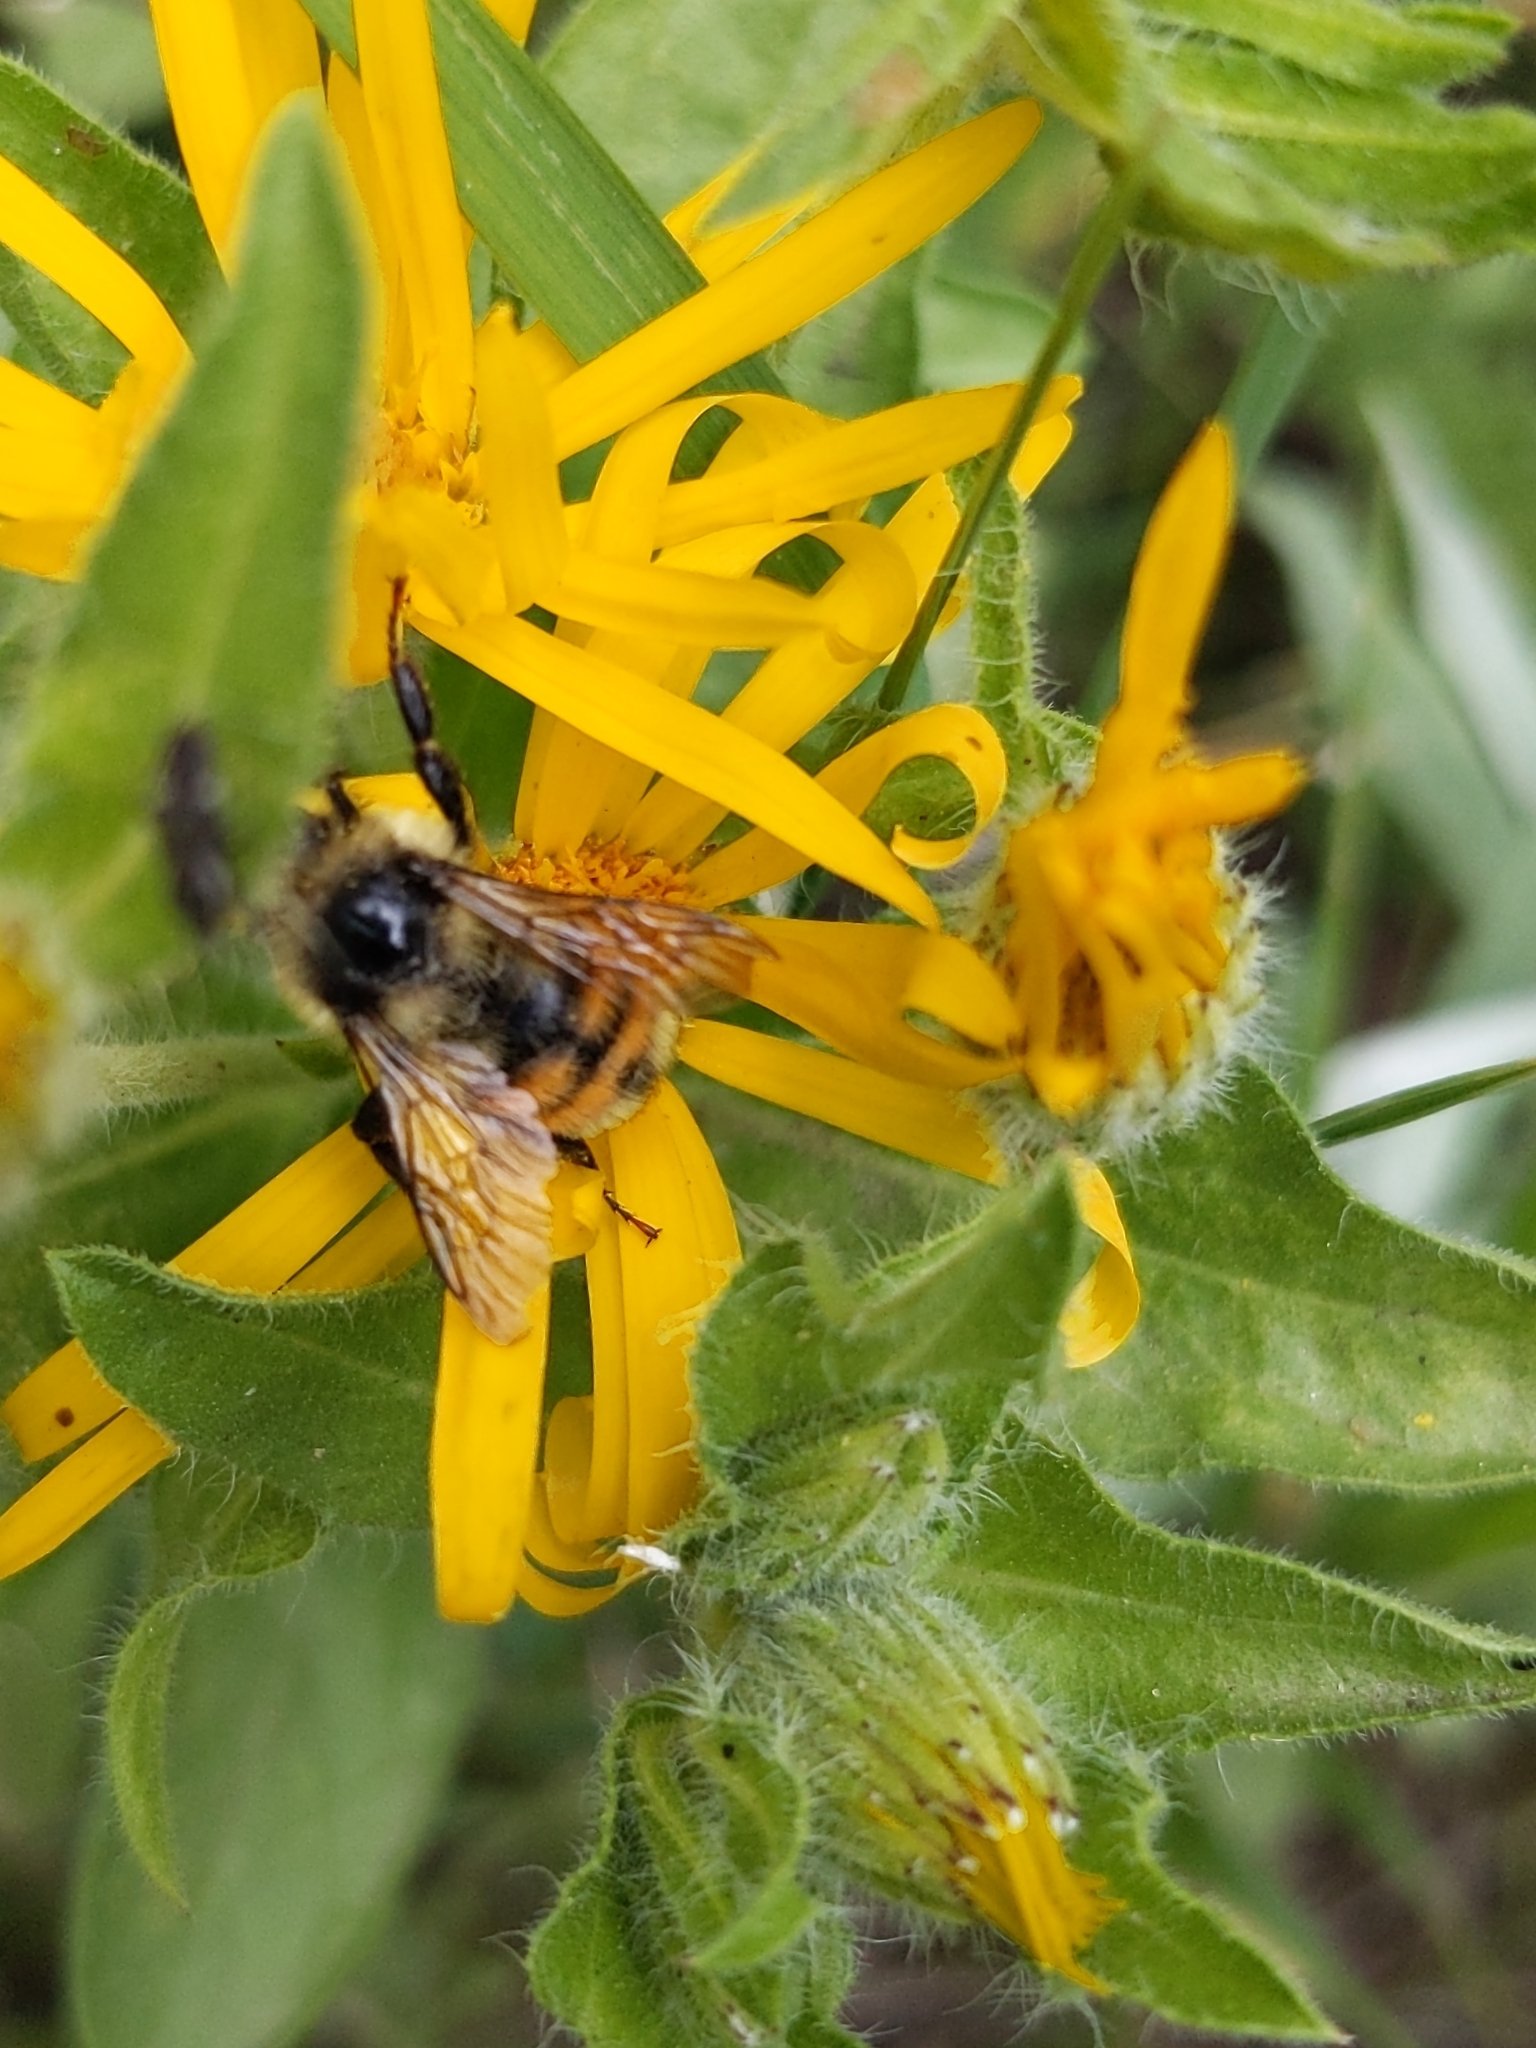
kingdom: Animalia
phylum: Arthropoda
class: Insecta
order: Hymenoptera
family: Apidae
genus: Bombus
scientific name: Bombus bifarius
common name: Two form bumble bee
